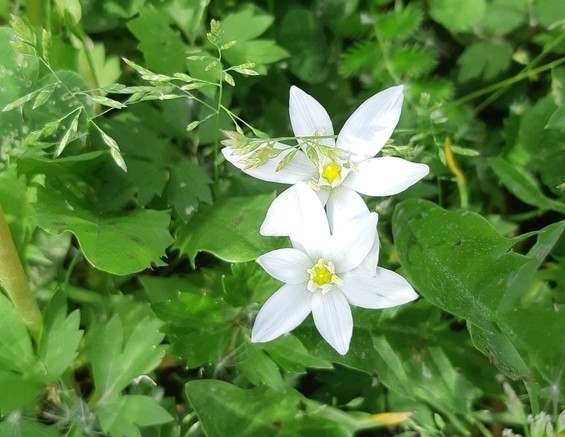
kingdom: Plantae
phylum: Tracheophyta
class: Liliopsida
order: Asparagales
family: Asparagaceae
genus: Ornithogalum
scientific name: Ornithogalum umbellatum
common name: Garden star-of-bethlehem
